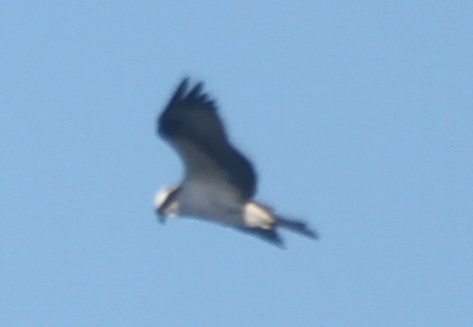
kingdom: Animalia
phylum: Chordata
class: Aves
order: Accipitriformes
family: Pandionidae
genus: Pandion
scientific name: Pandion haliaetus
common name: Osprey
